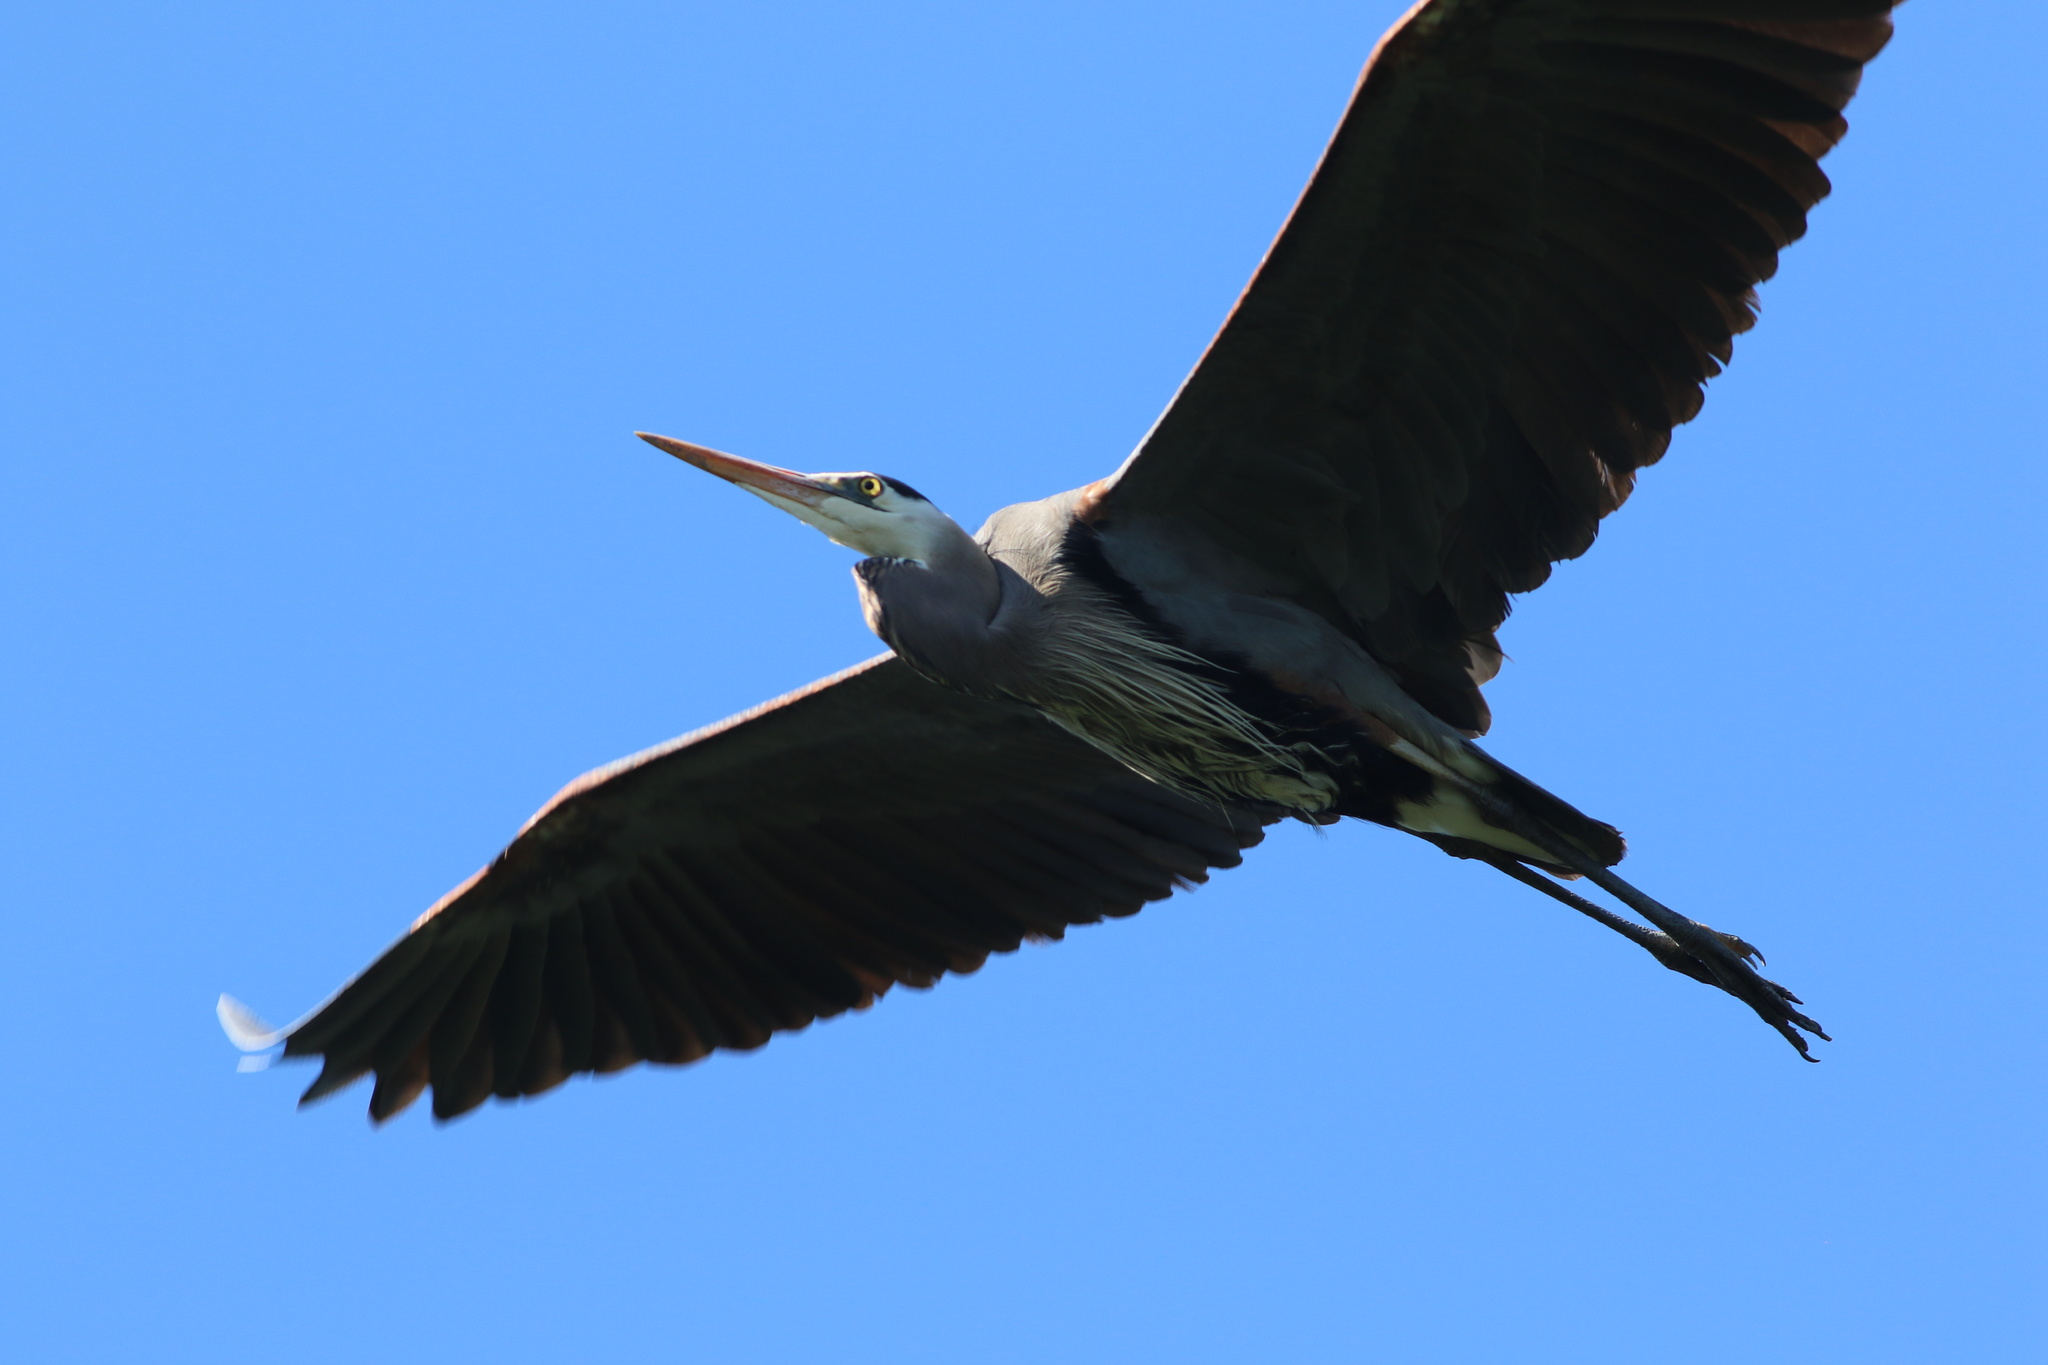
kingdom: Animalia
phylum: Chordata
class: Aves
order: Pelecaniformes
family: Ardeidae
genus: Ardea
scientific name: Ardea herodias
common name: Great blue heron
